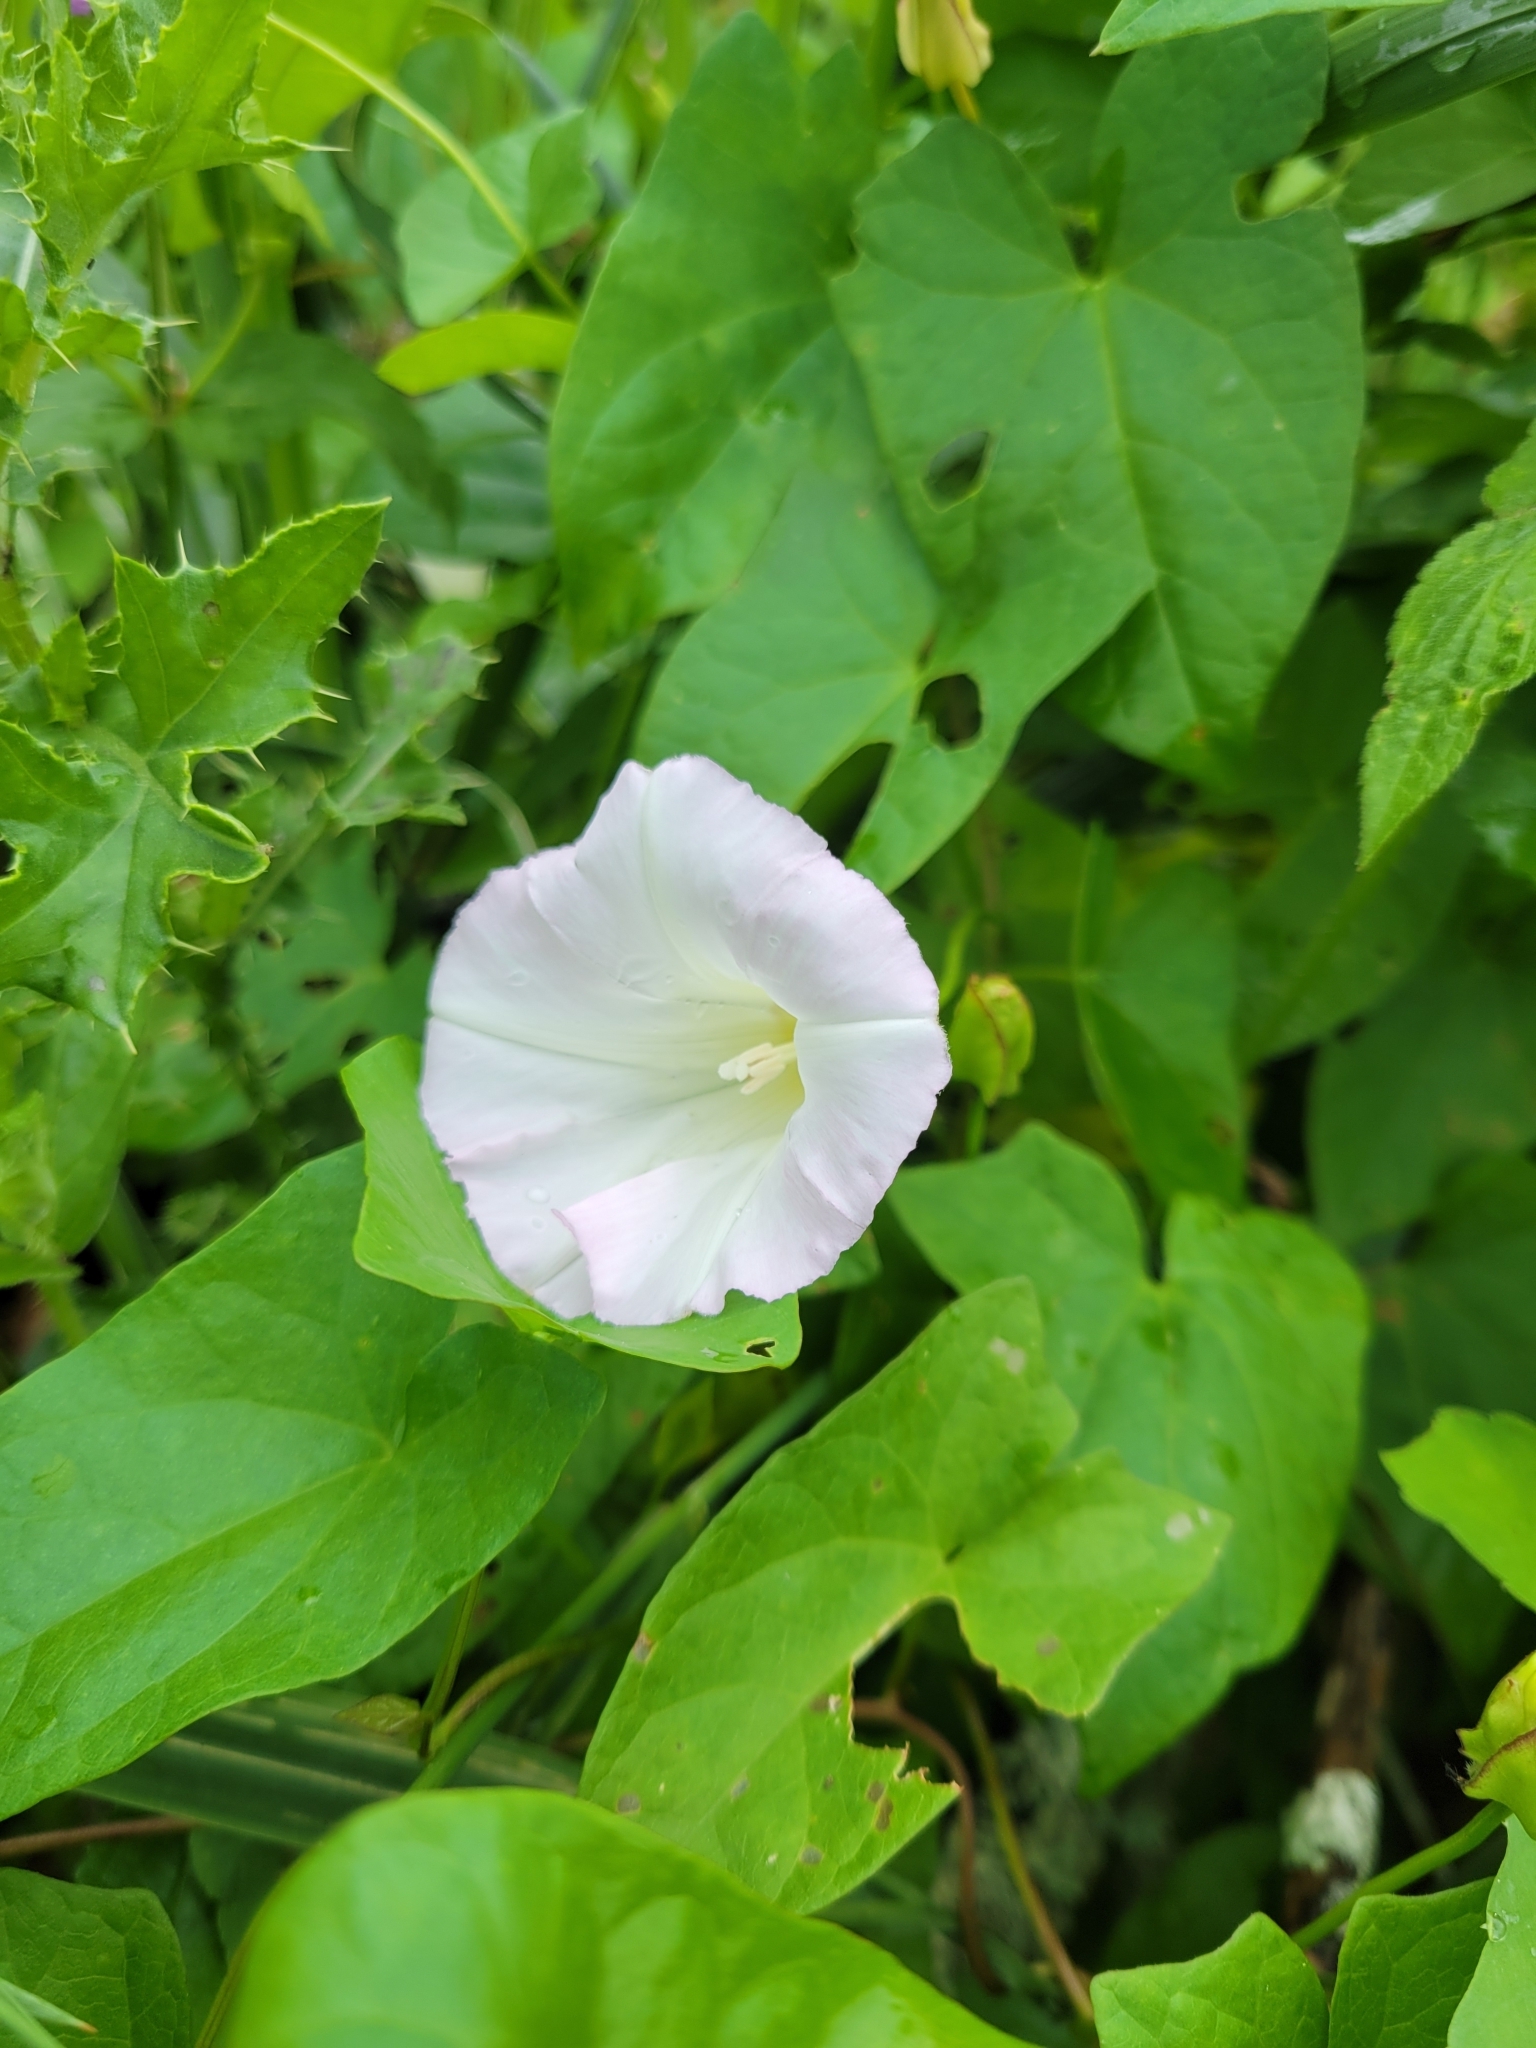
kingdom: Plantae
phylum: Tracheophyta
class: Magnoliopsida
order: Solanales
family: Convolvulaceae
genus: Calystegia
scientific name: Calystegia sepium
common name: Hedge bindweed
